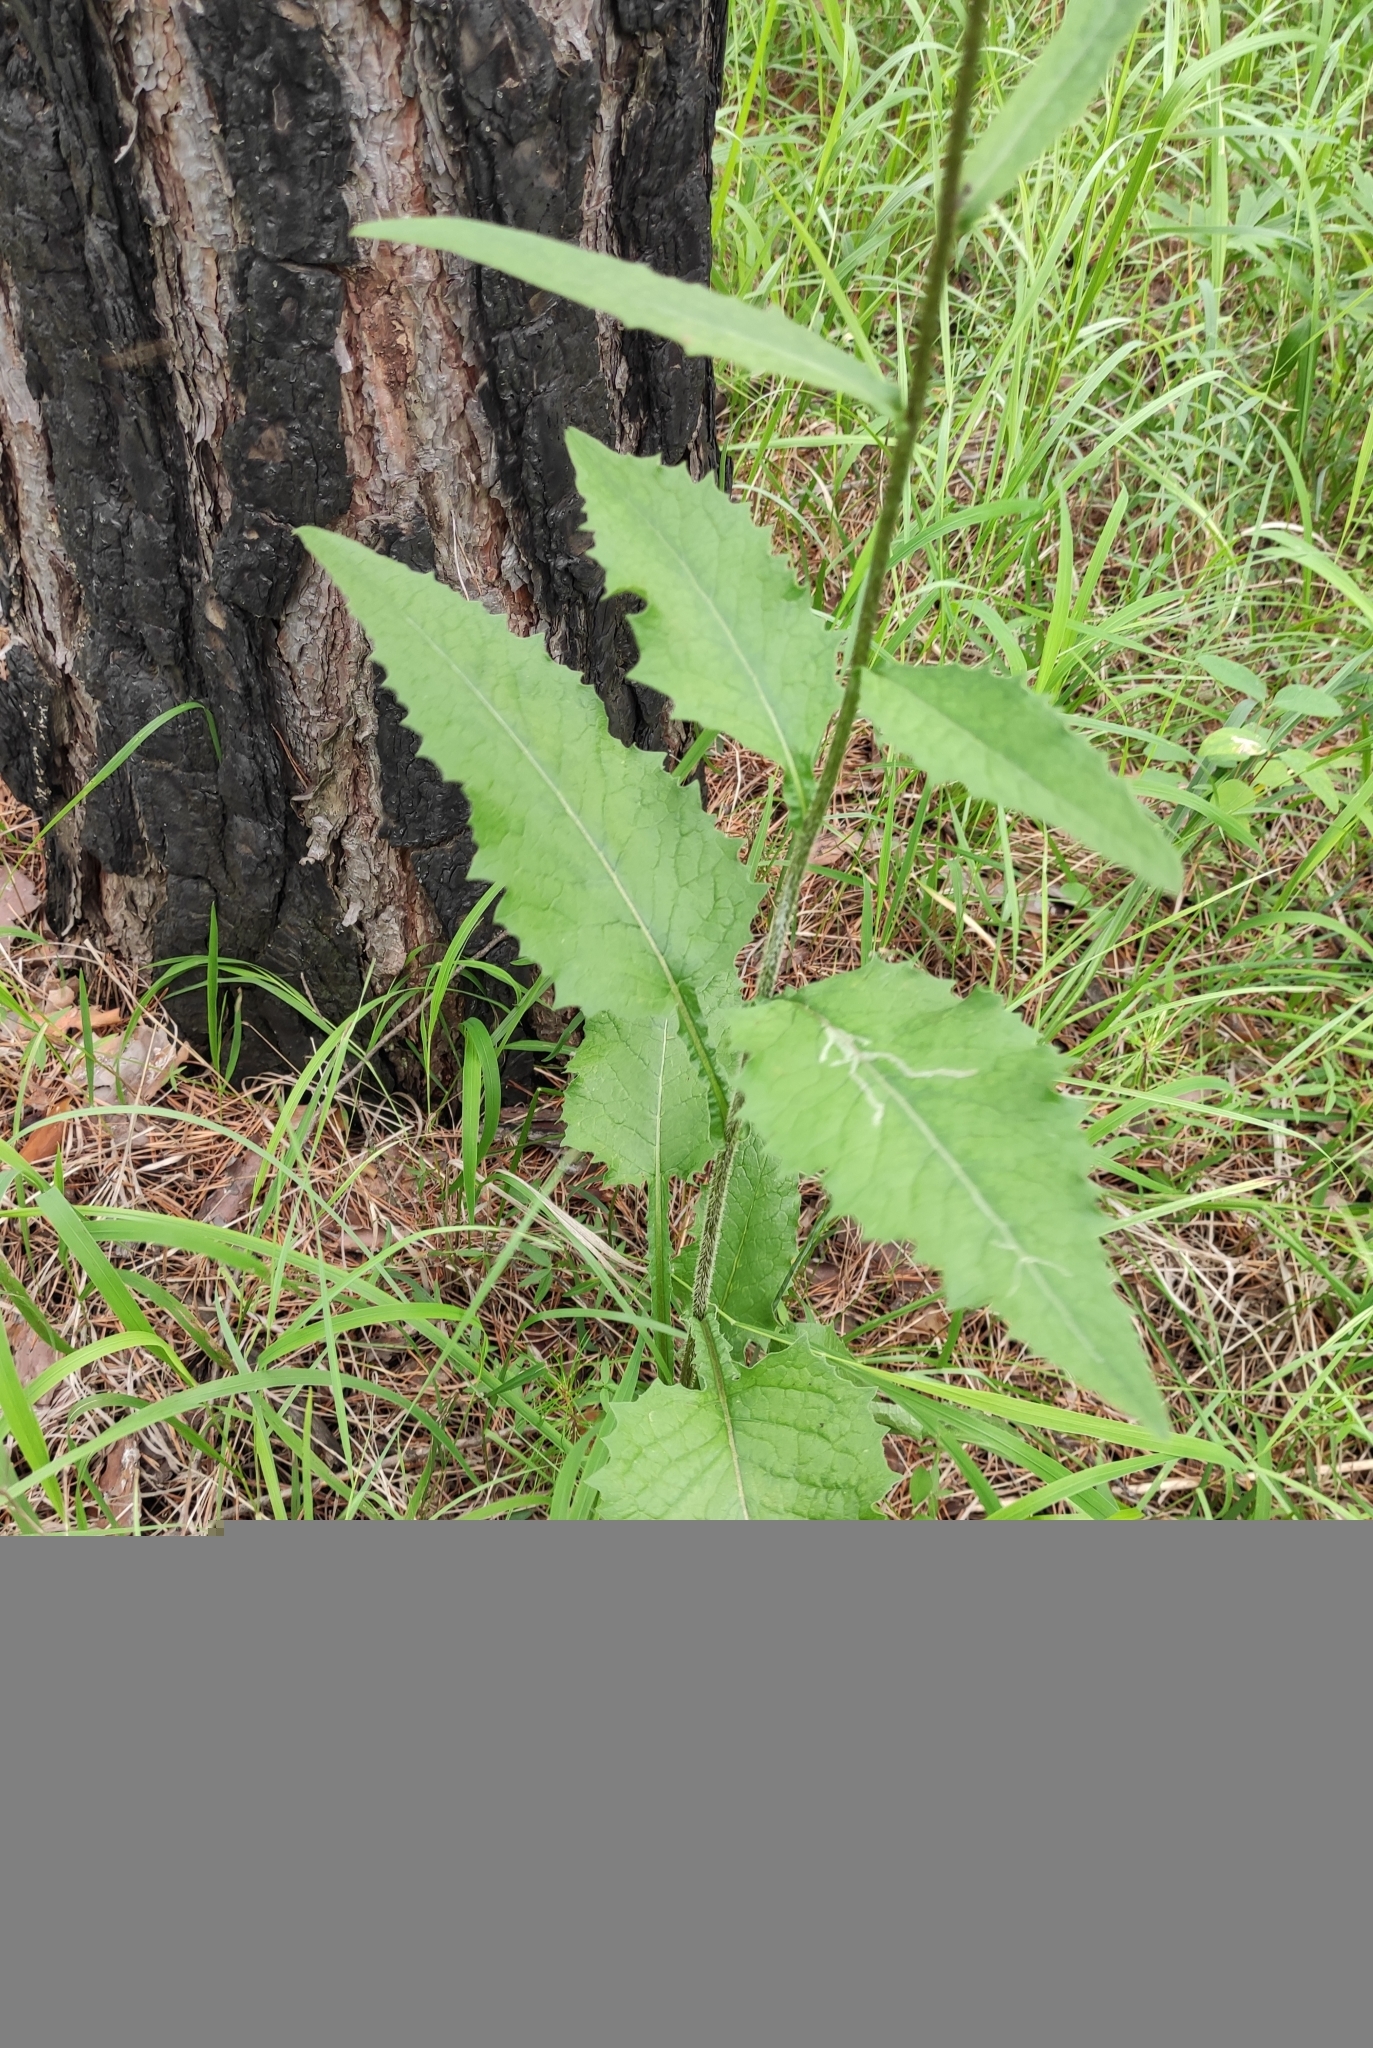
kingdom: Plantae
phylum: Tracheophyta
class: Magnoliopsida
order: Asterales
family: Asteraceae
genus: Crepis
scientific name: Crepis sibirica
